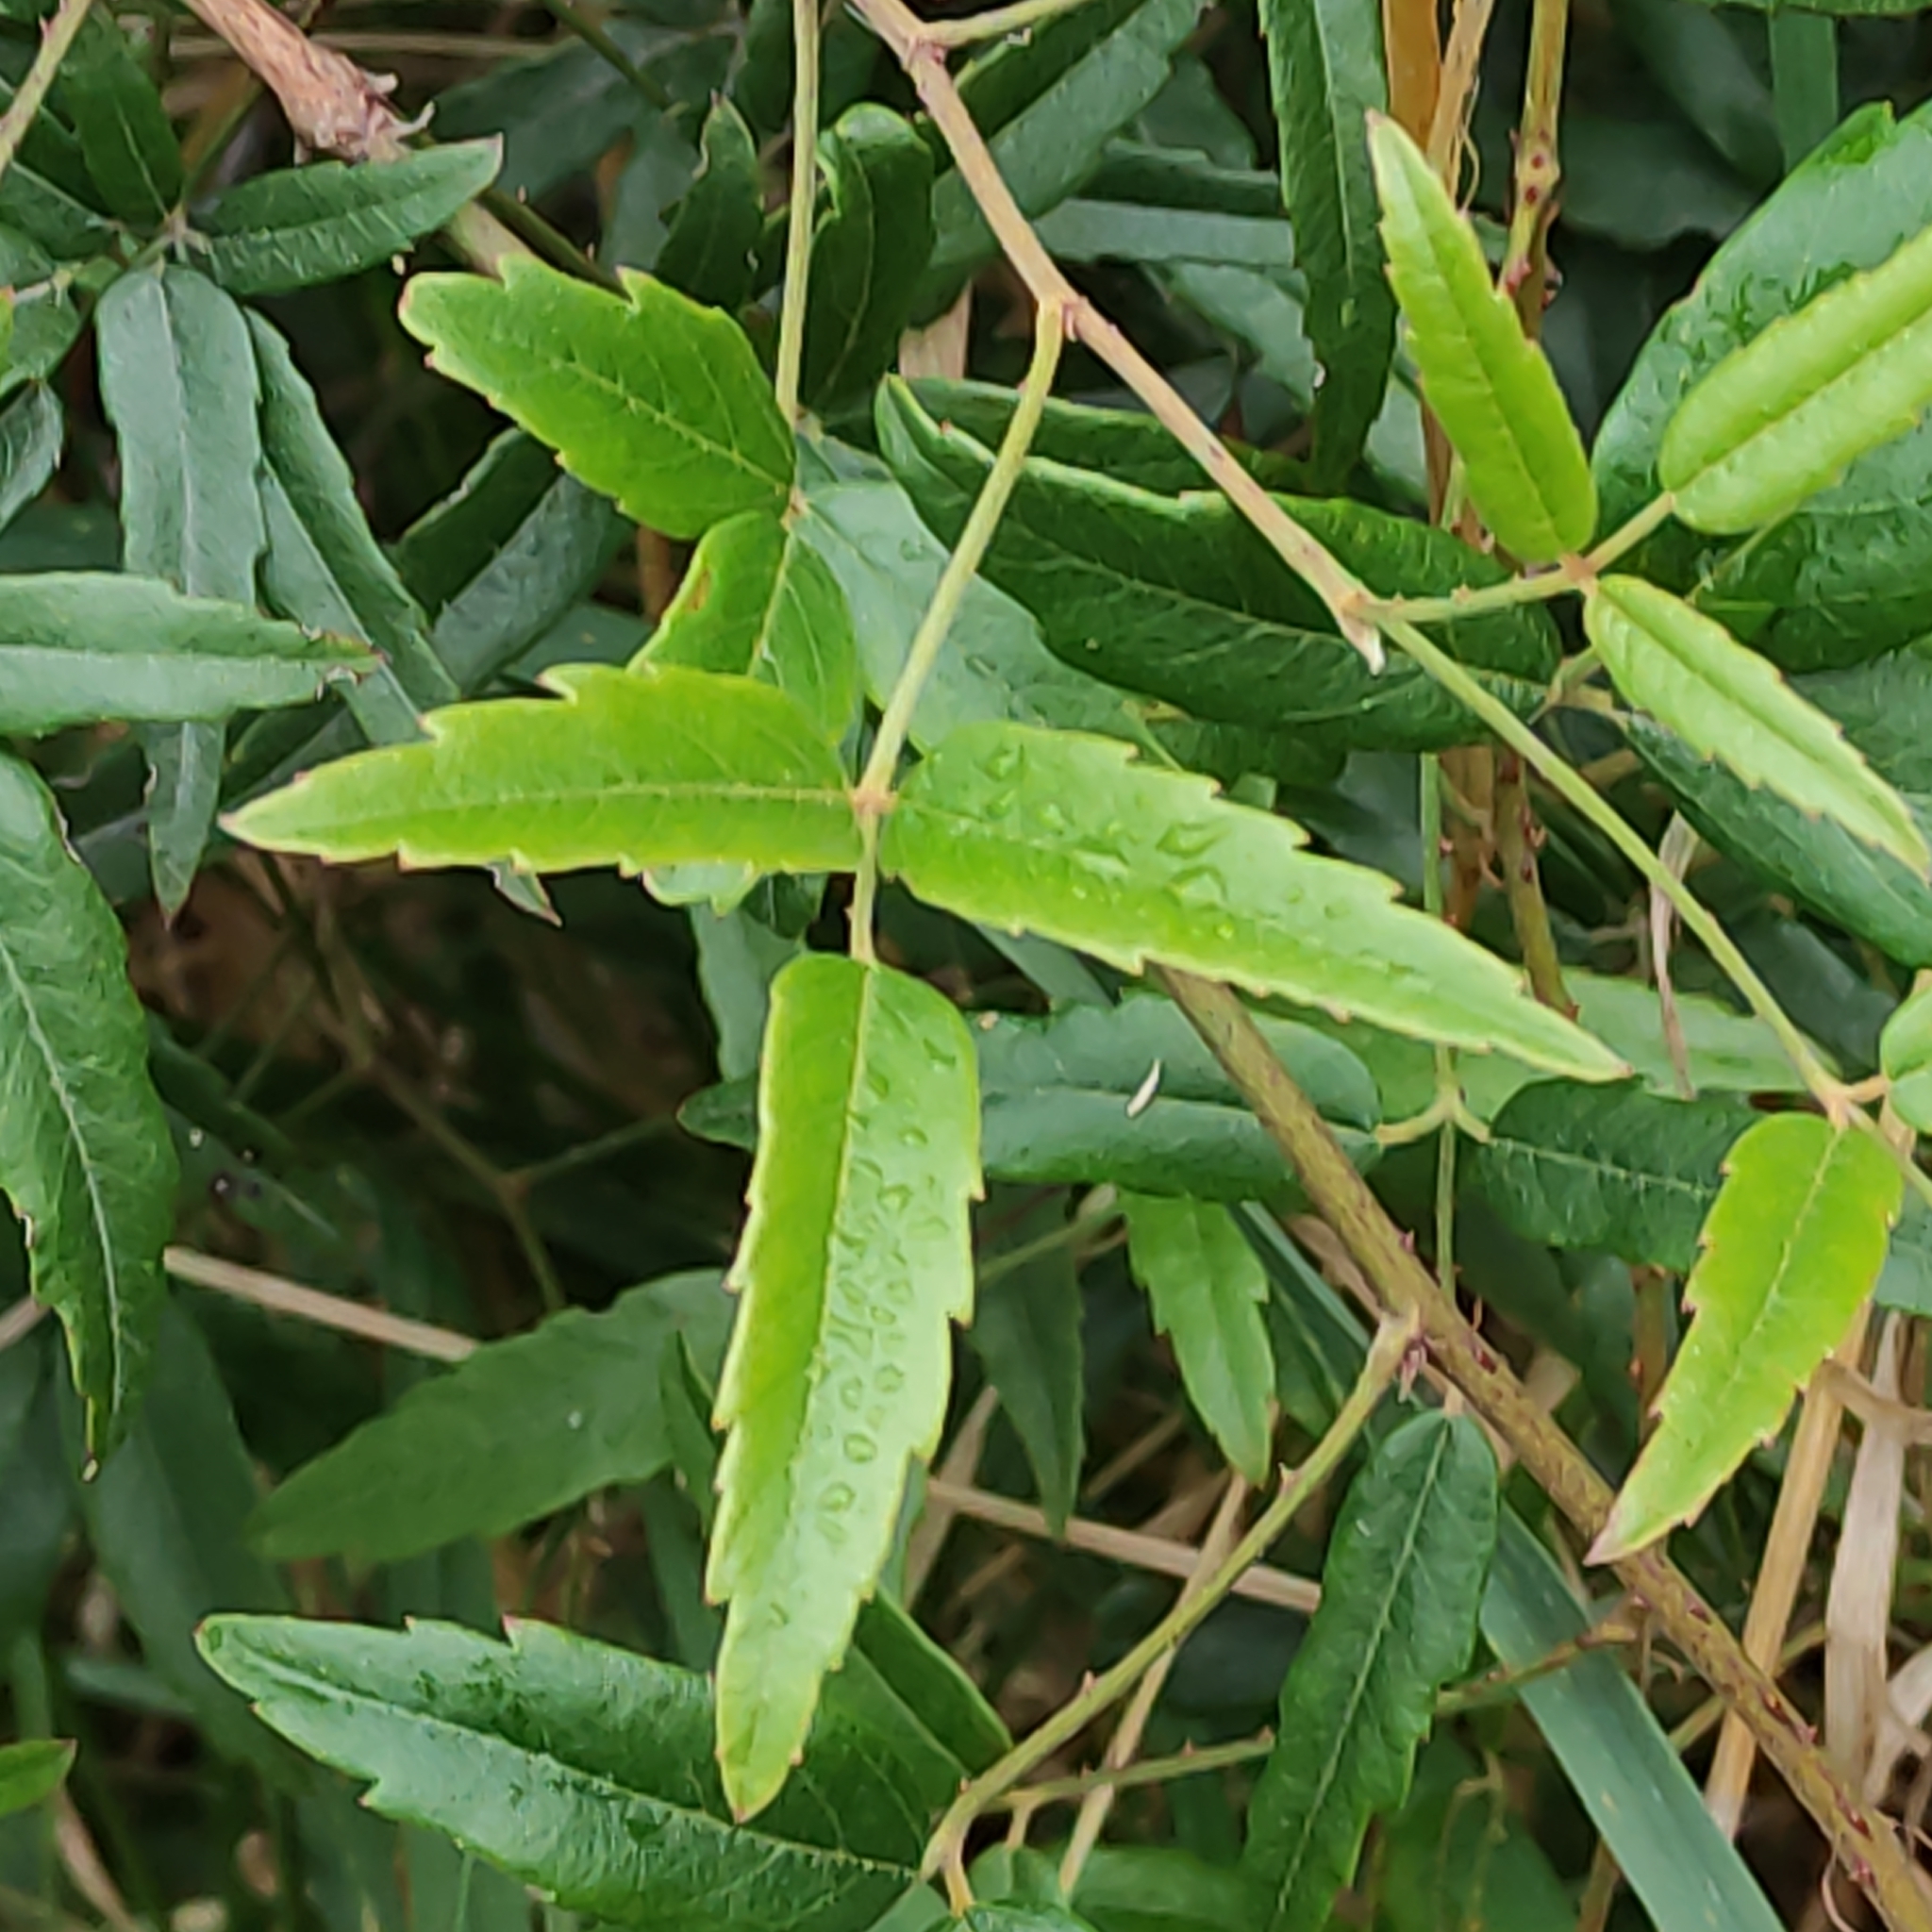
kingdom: Plantae
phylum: Tracheophyta
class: Magnoliopsida
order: Rosales
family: Rosaceae
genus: Rubus
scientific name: Rubus schmidelioides
